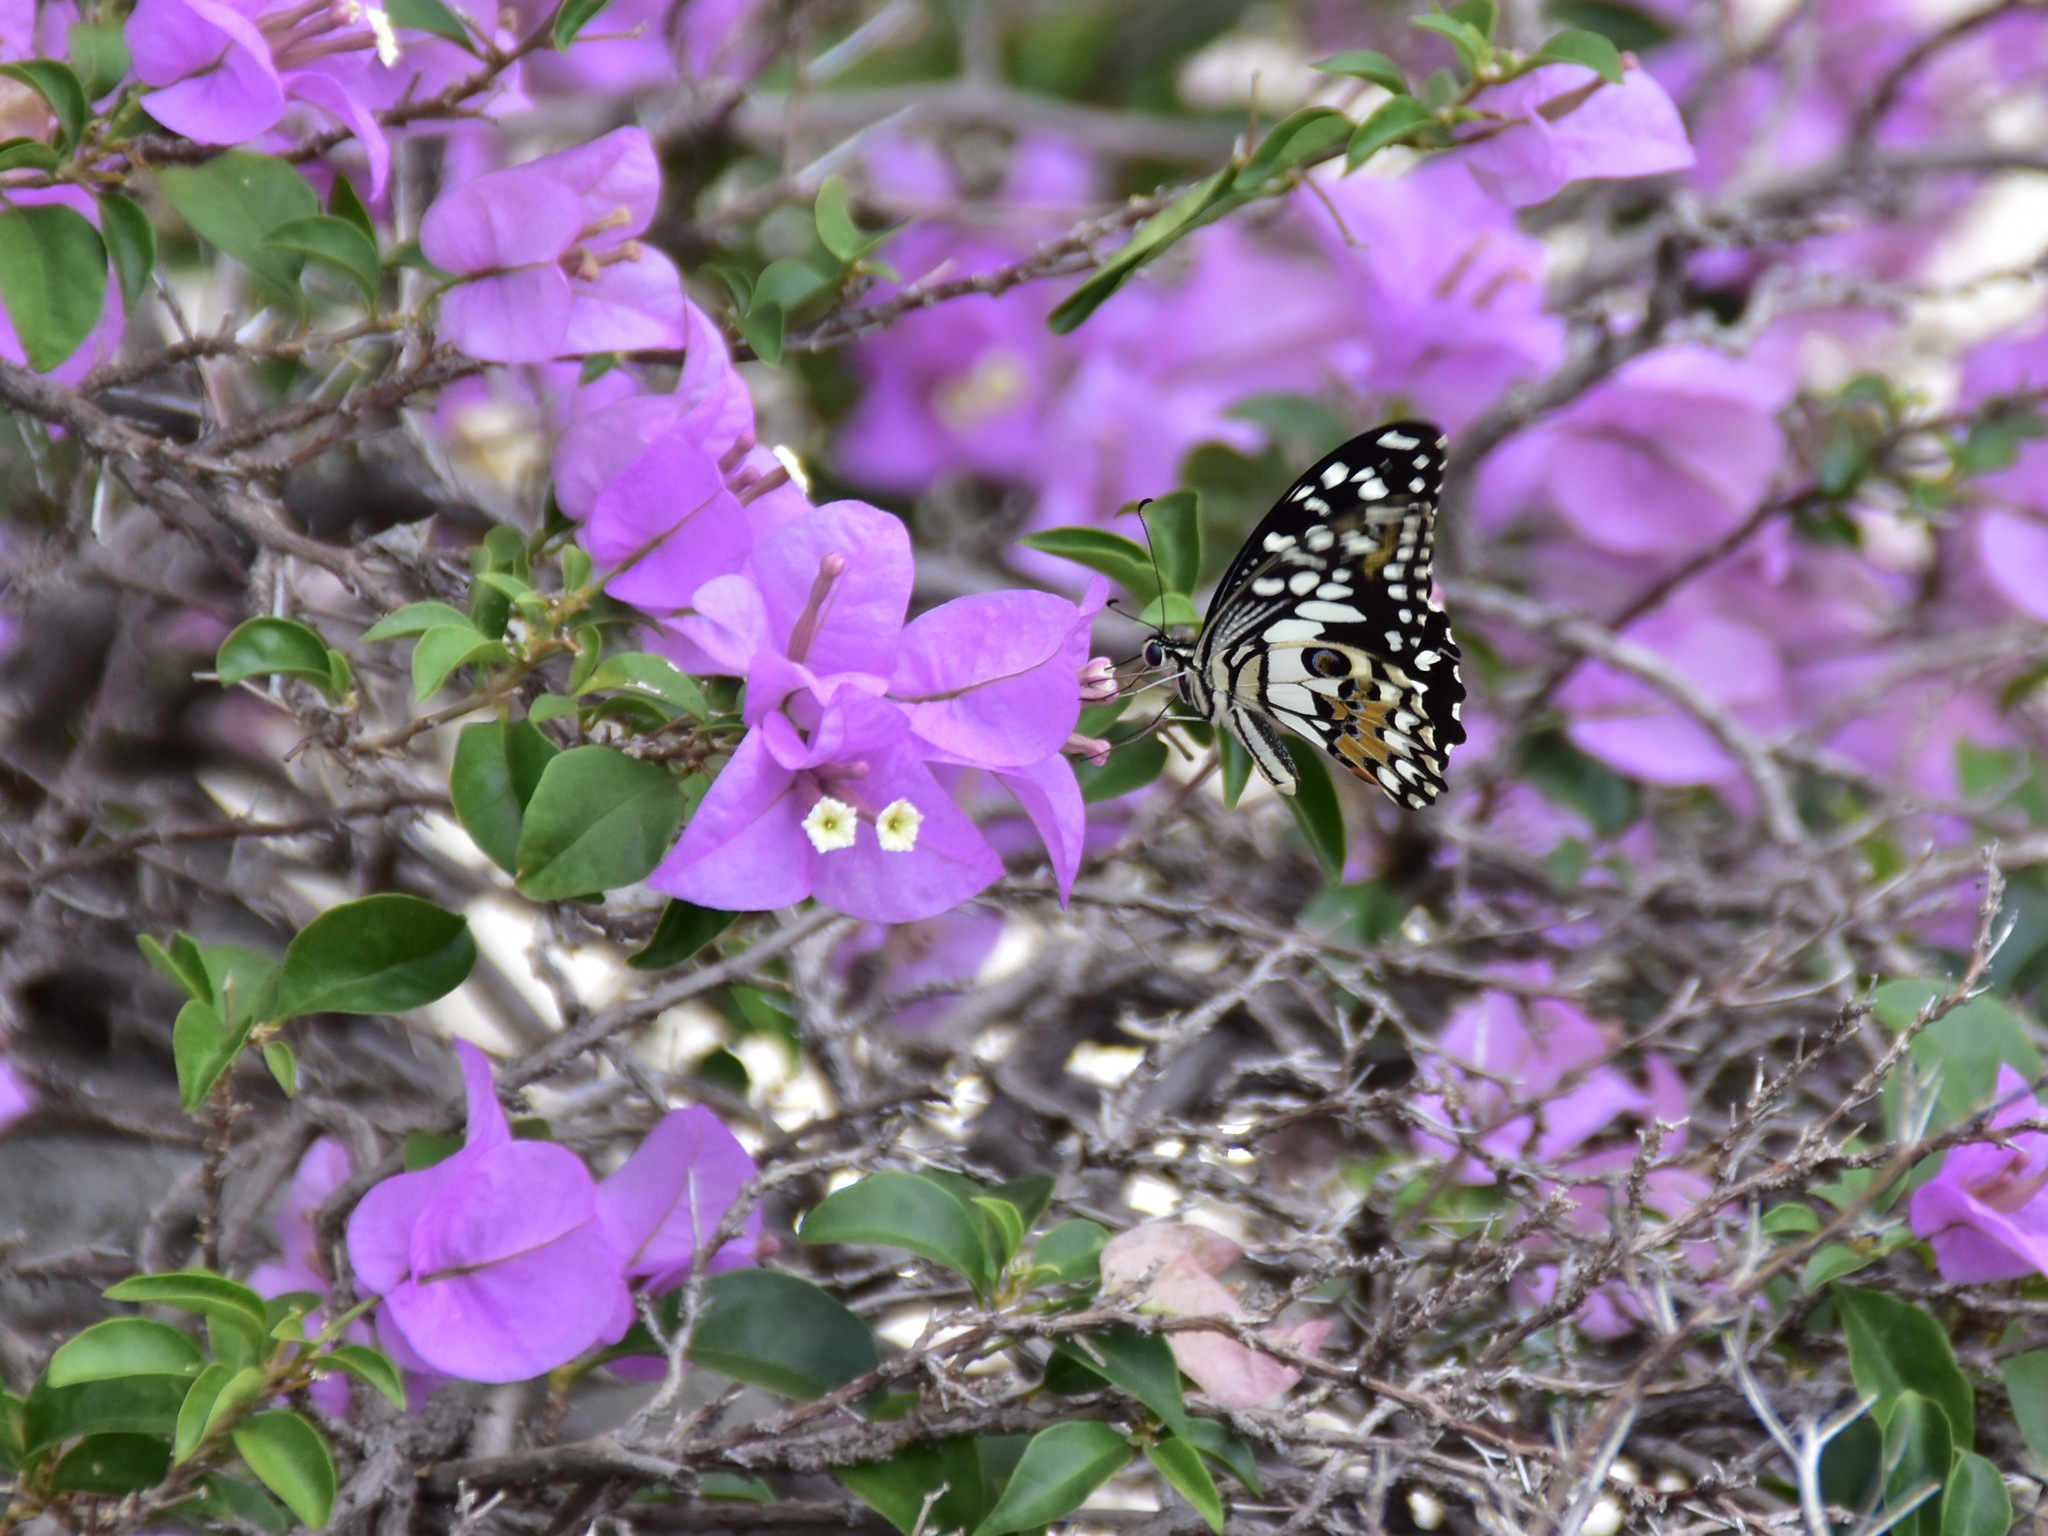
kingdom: Animalia
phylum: Arthropoda
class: Insecta
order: Lepidoptera
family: Papilionidae
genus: Papilio
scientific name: Papilio demoleus
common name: Lime butterfly
